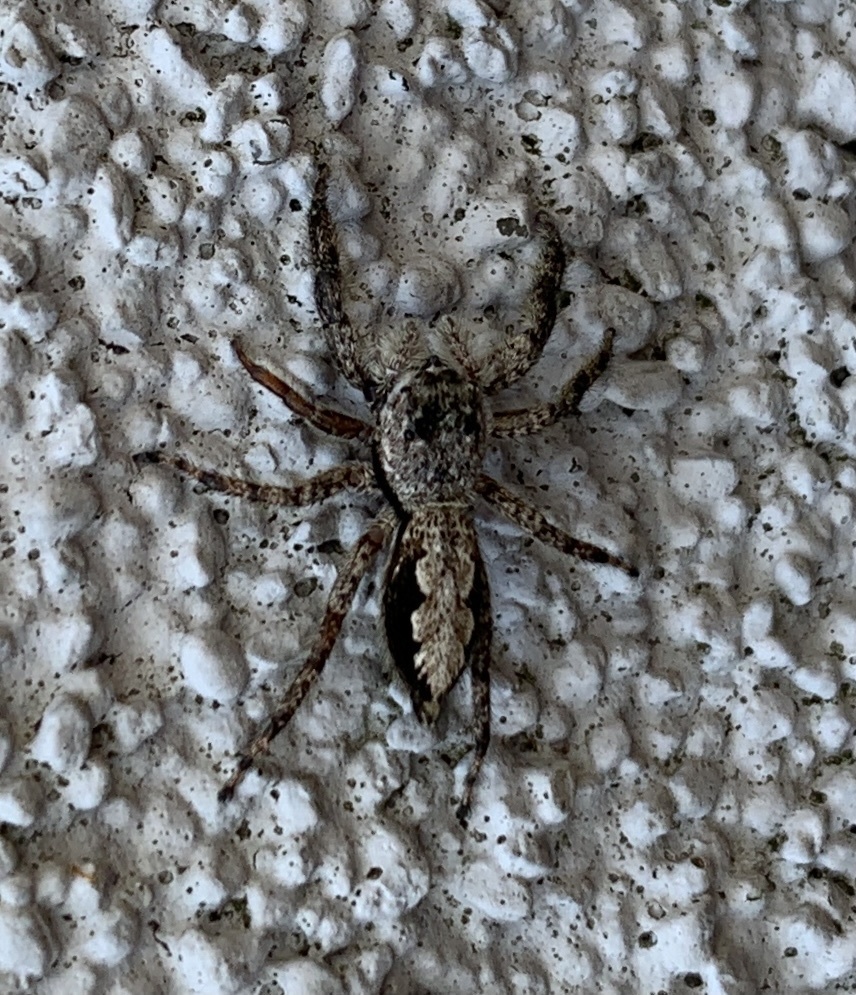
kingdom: Animalia
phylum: Arthropoda
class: Arachnida
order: Araneae
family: Salticidae
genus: Platycryptus
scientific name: Platycryptus undatus
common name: Tan jumping spider
